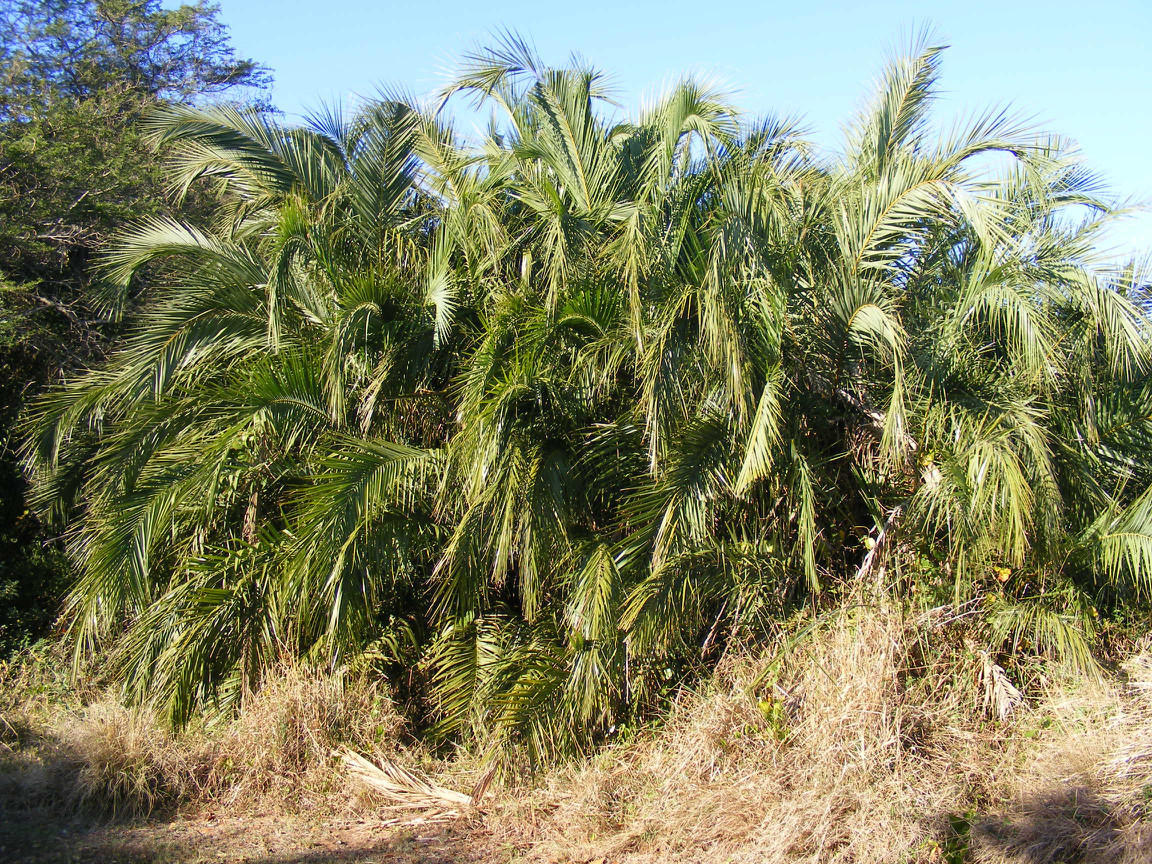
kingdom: Plantae
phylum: Tracheophyta
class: Liliopsida
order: Arecales
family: Arecaceae
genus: Phoenix
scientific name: Phoenix reclinata
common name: Senegal date palm
